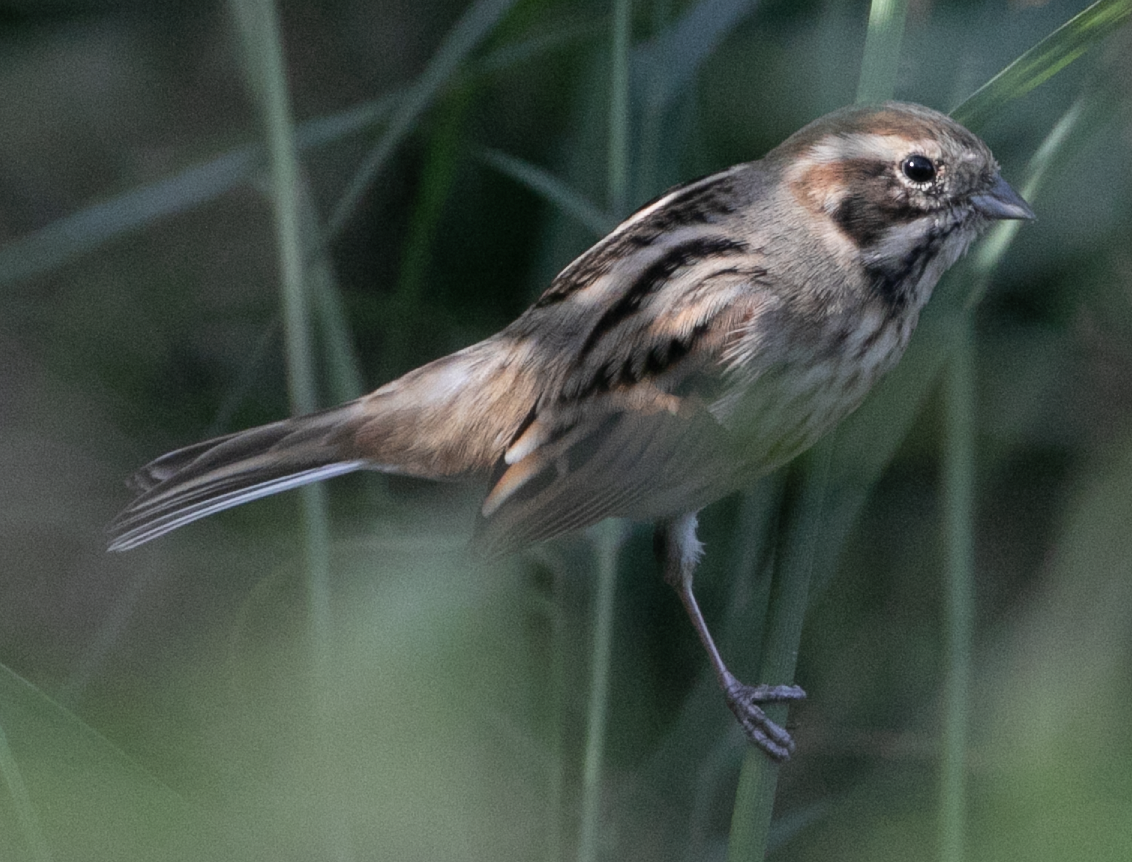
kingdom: Animalia
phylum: Chordata
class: Aves
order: Passeriformes
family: Emberizidae
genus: Emberiza
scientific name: Emberiza schoeniclus
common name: Reed bunting
